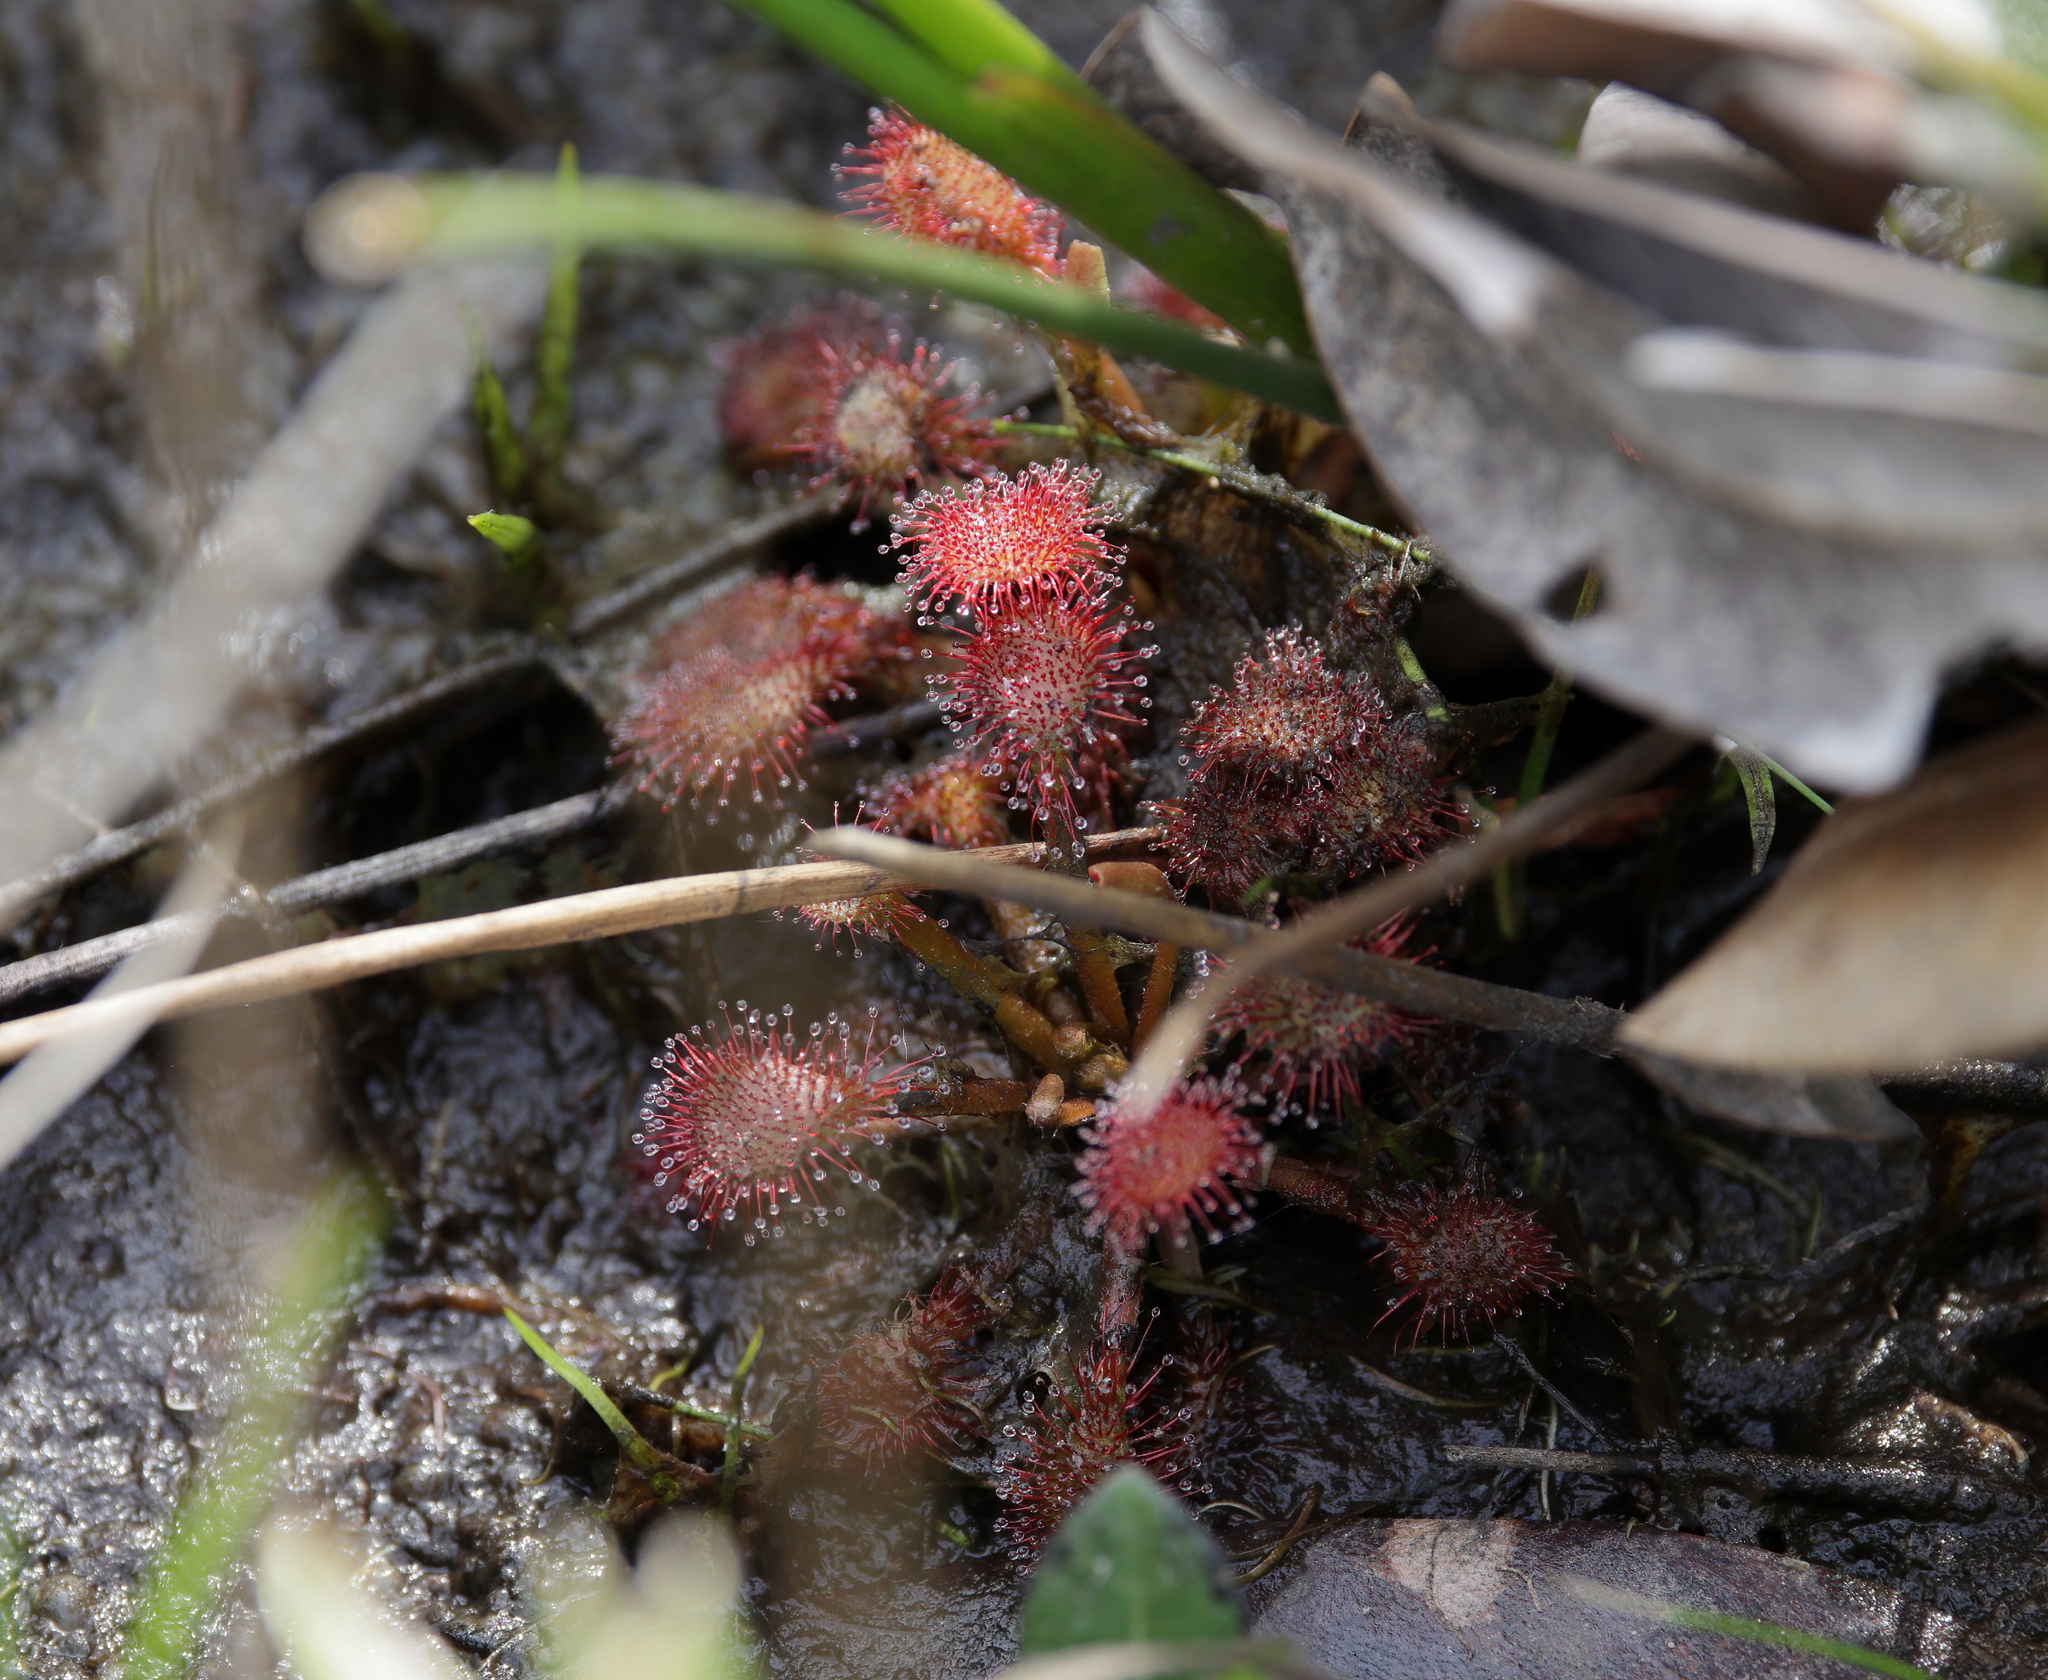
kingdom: Plantae
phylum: Tracheophyta
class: Magnoliopsida
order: Caryophyllales
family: Droseraceae
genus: Drosera
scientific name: Drosera capillaris
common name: Pink sundew
